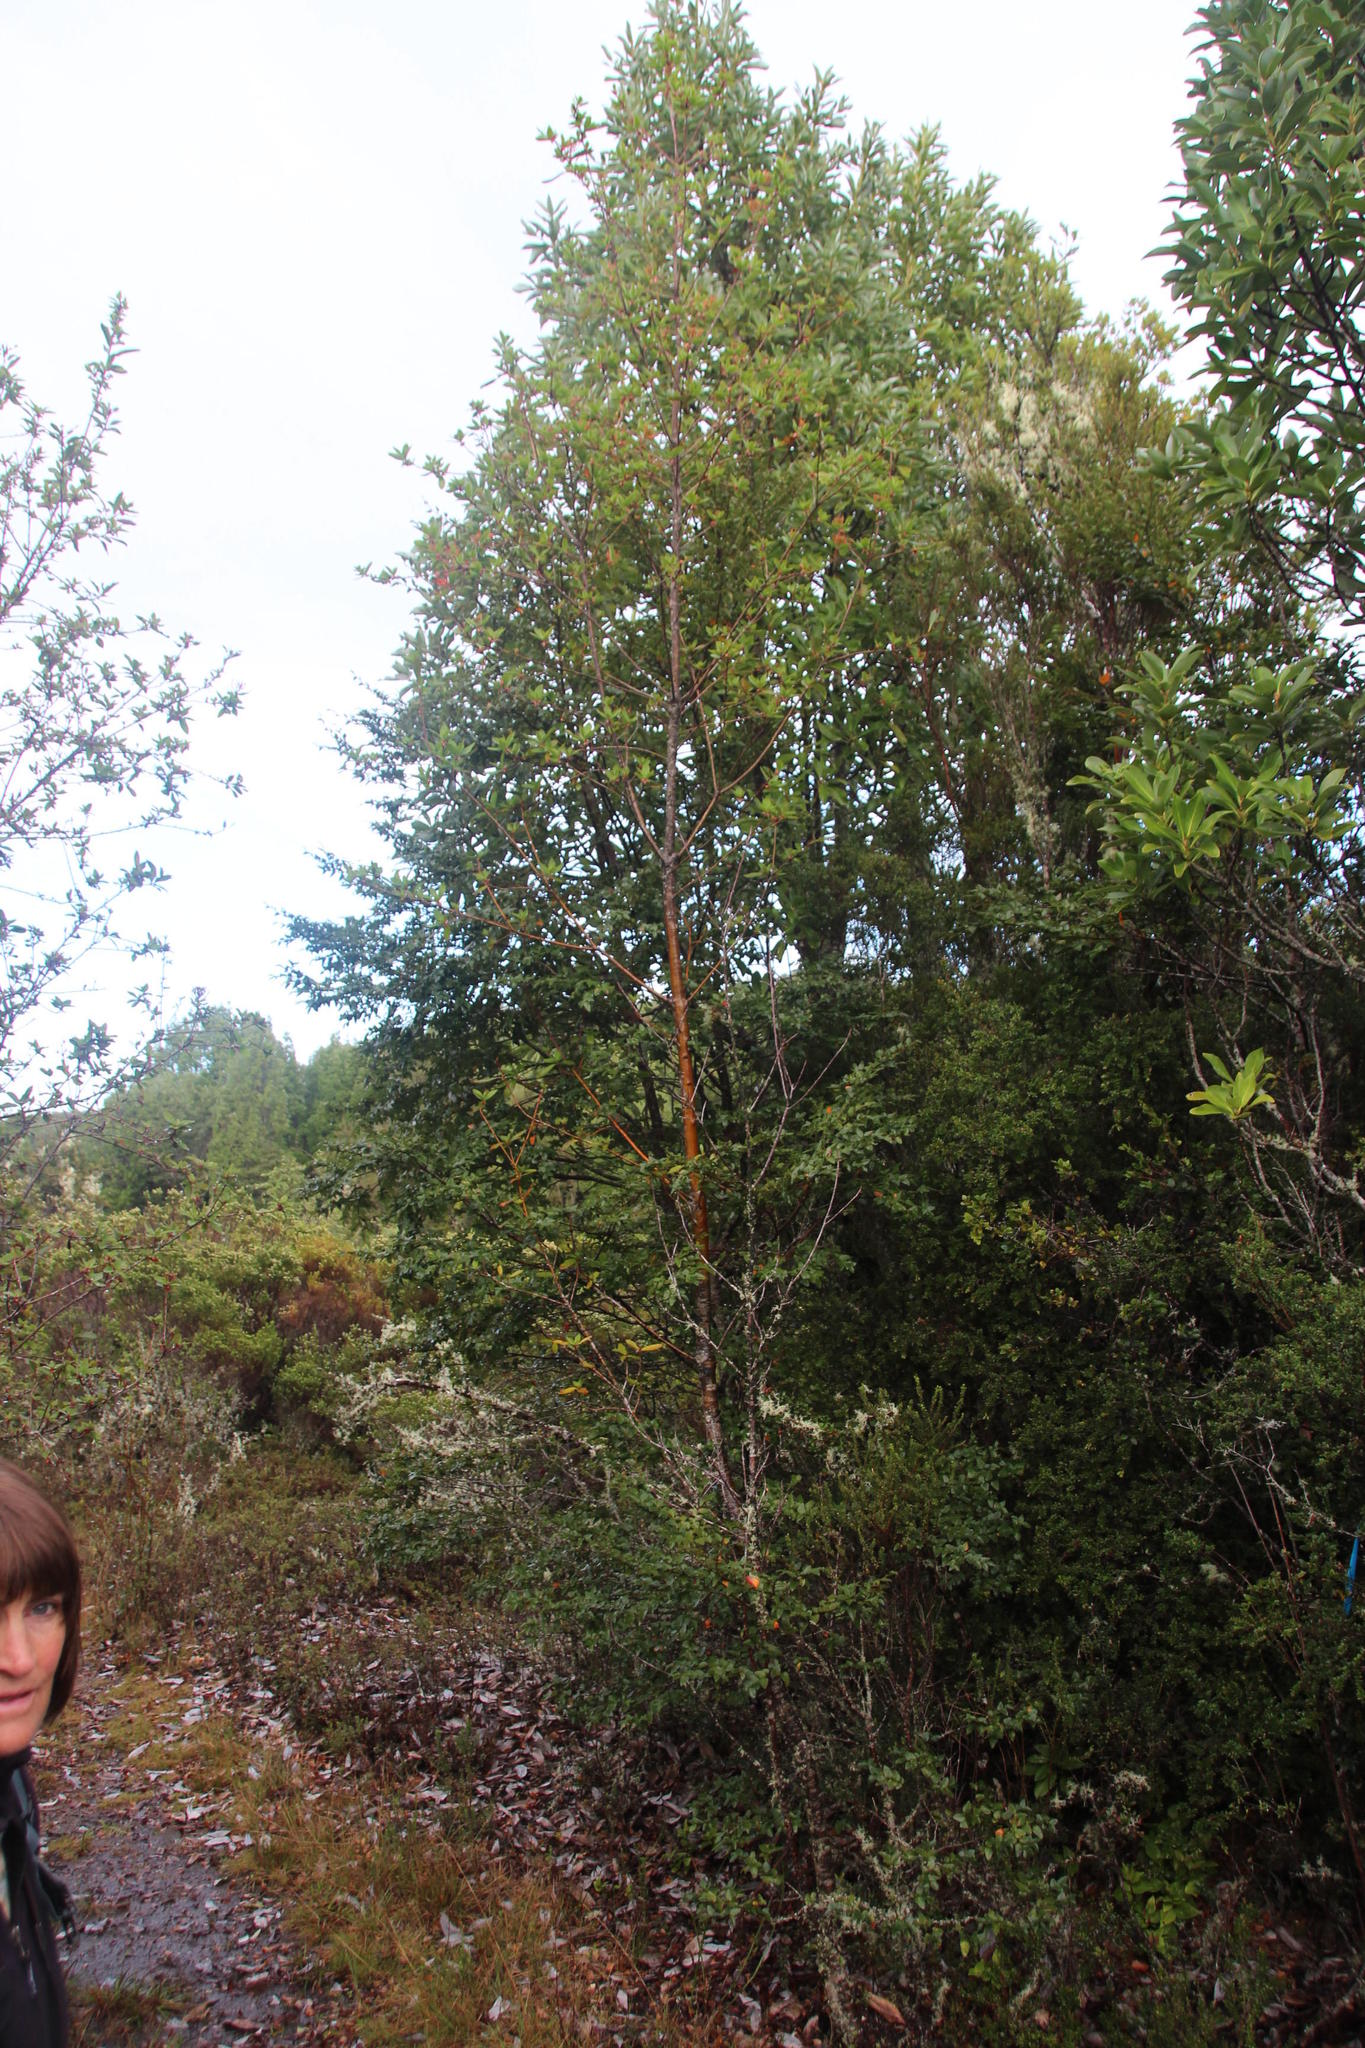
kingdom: Plantae
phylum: Tracheophyta
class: Magnoliopsida
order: Fagales
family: Nothofagaceae
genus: Nothofagus
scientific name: Nothofagus nitida
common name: Chiloé's coigue
